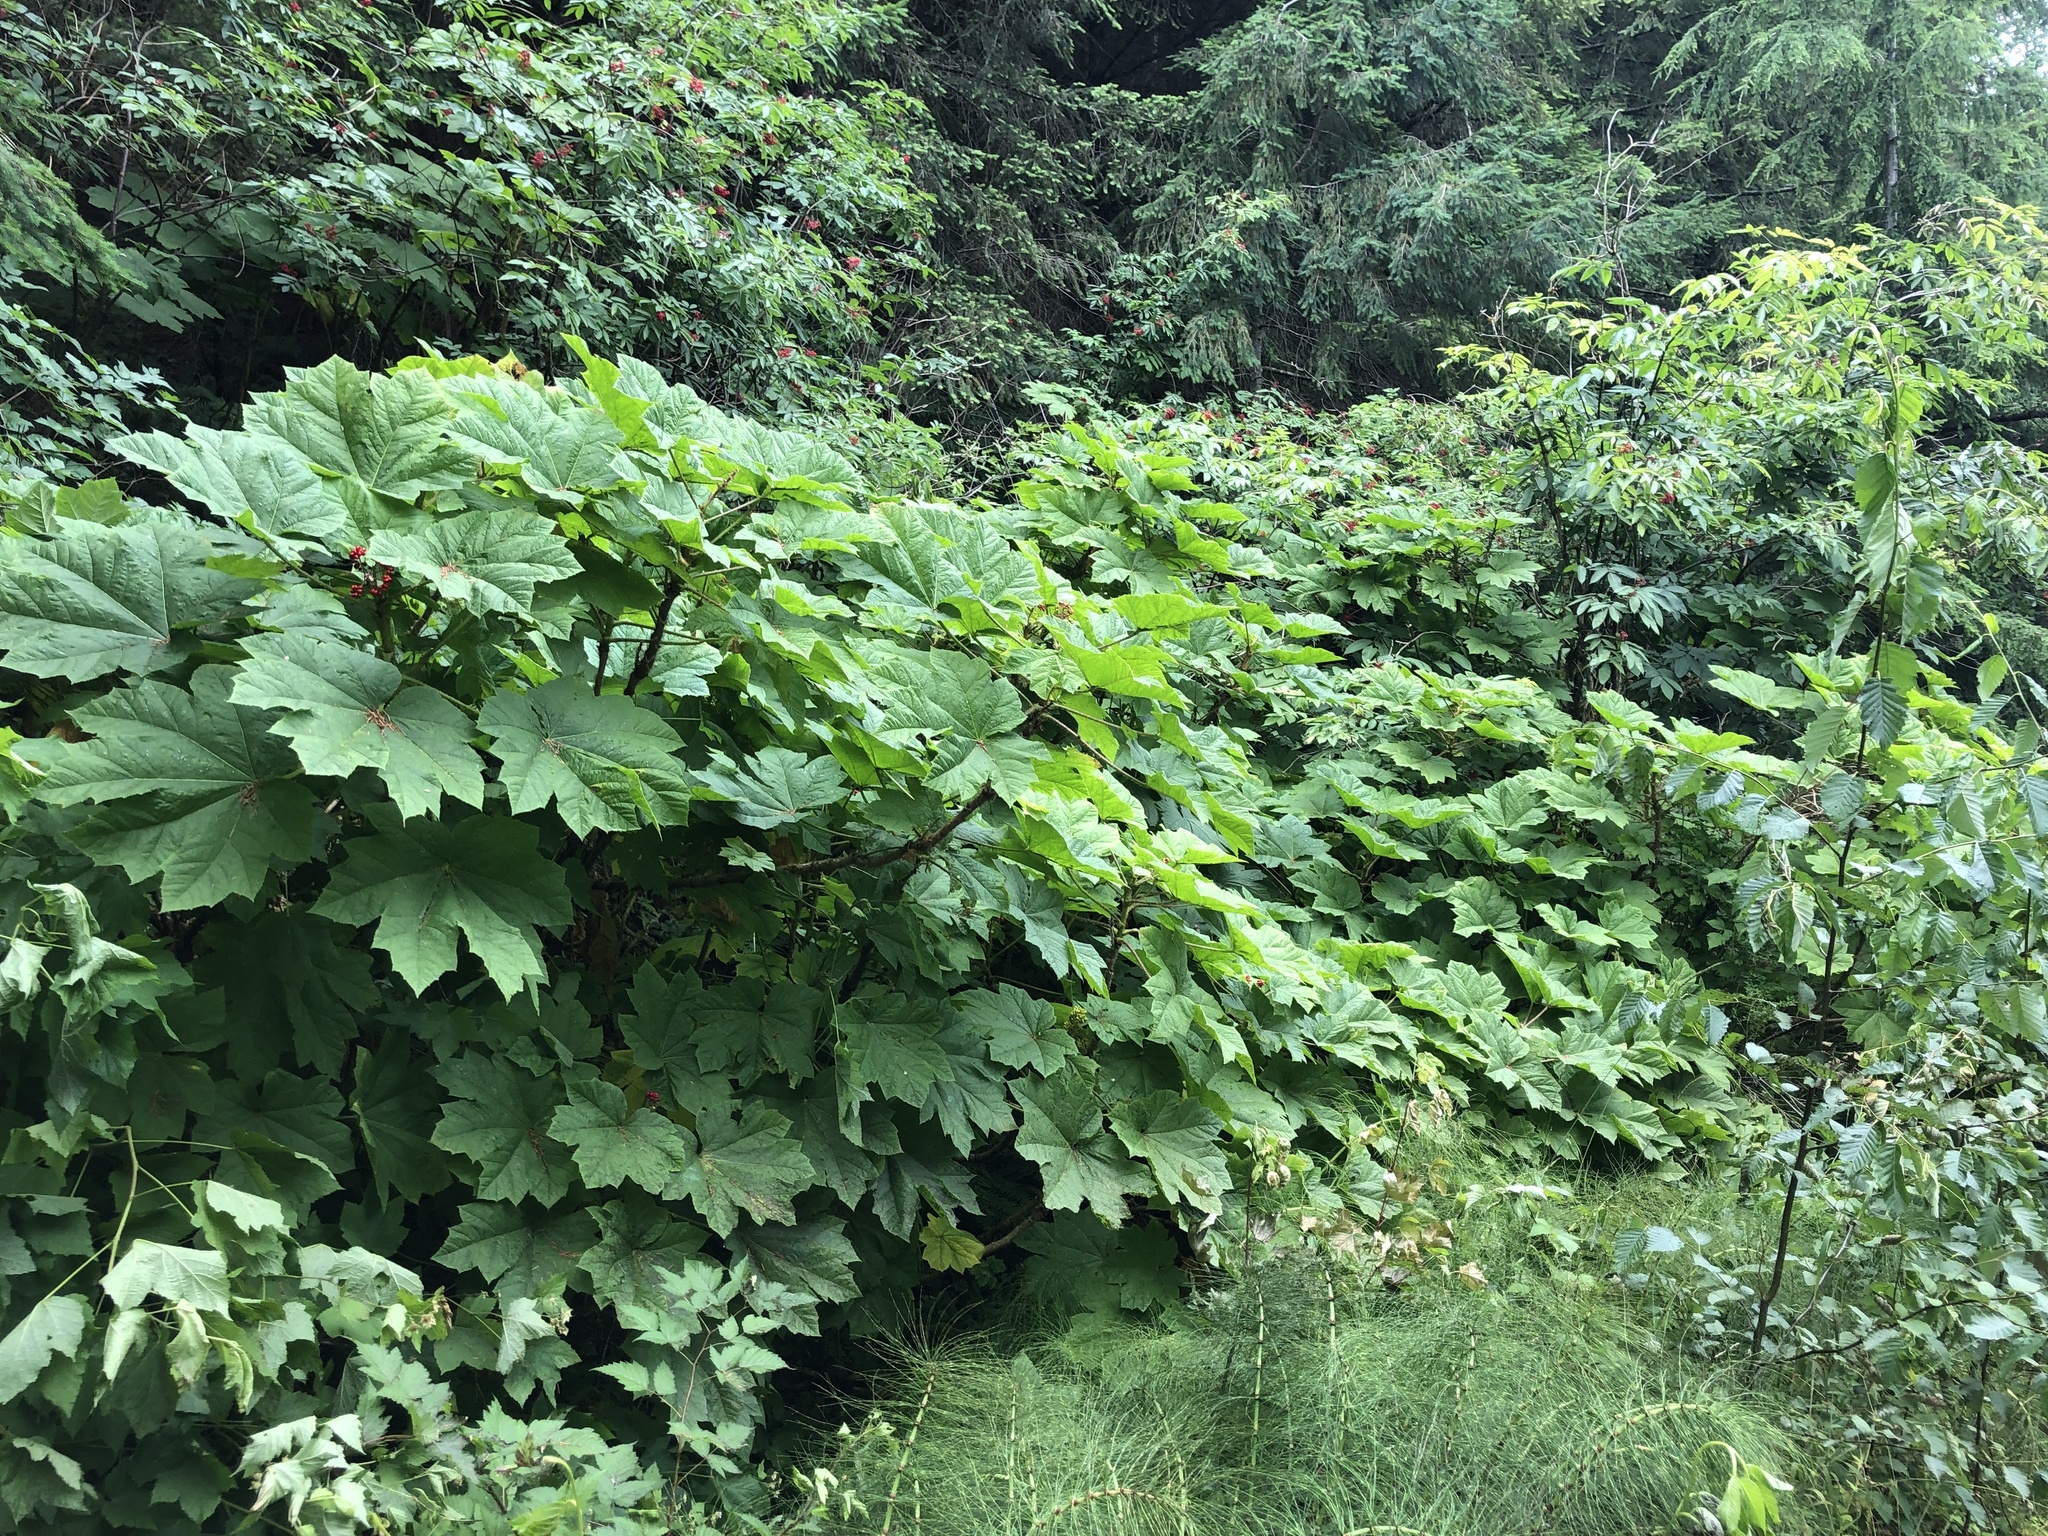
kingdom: Plantae
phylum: Tracheophyta
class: Magnoliopsida
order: Apiales
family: Araliaceae
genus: Oplopanax
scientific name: Oplopanax horridus
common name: Devil's walking-stick
